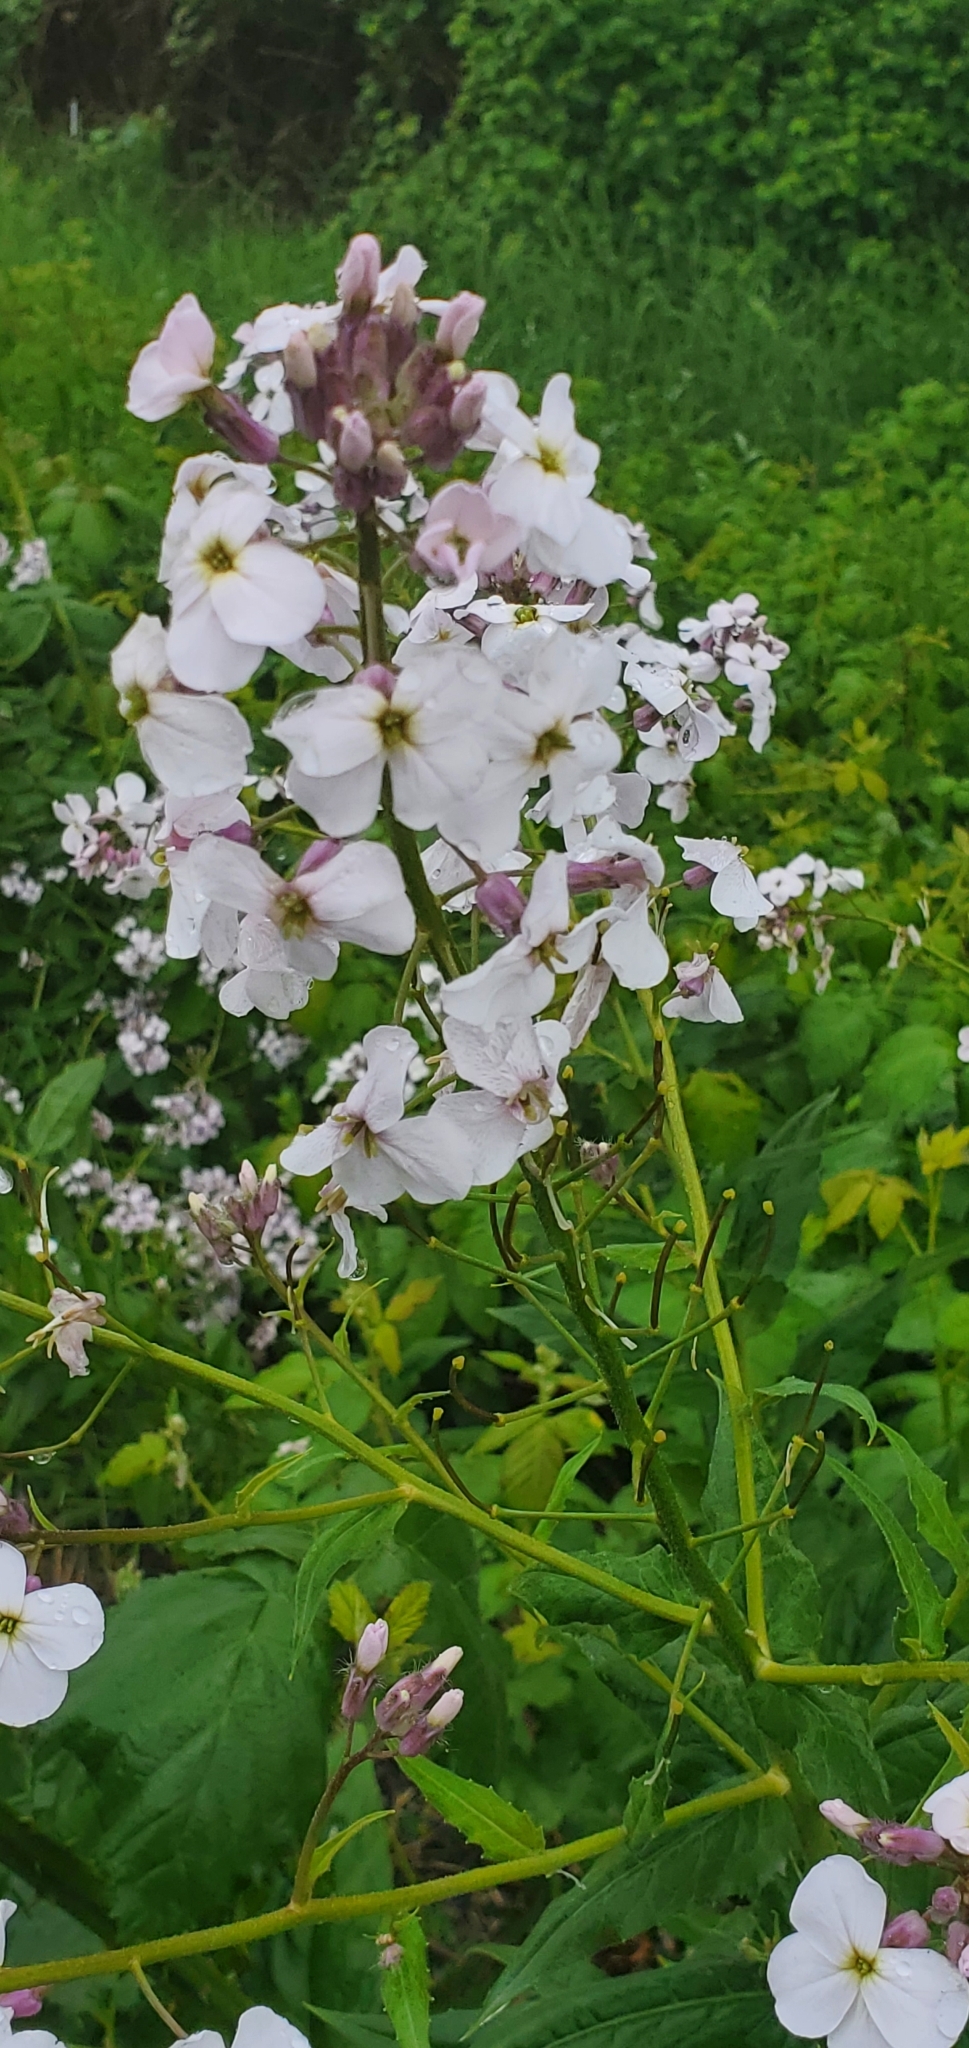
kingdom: Plantae
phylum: Tracheophyta
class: Magnoliopsida
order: Brassicales
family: Brassicaceae
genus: Hesperis
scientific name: Hesperis matronalis
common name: Dame's-violet
